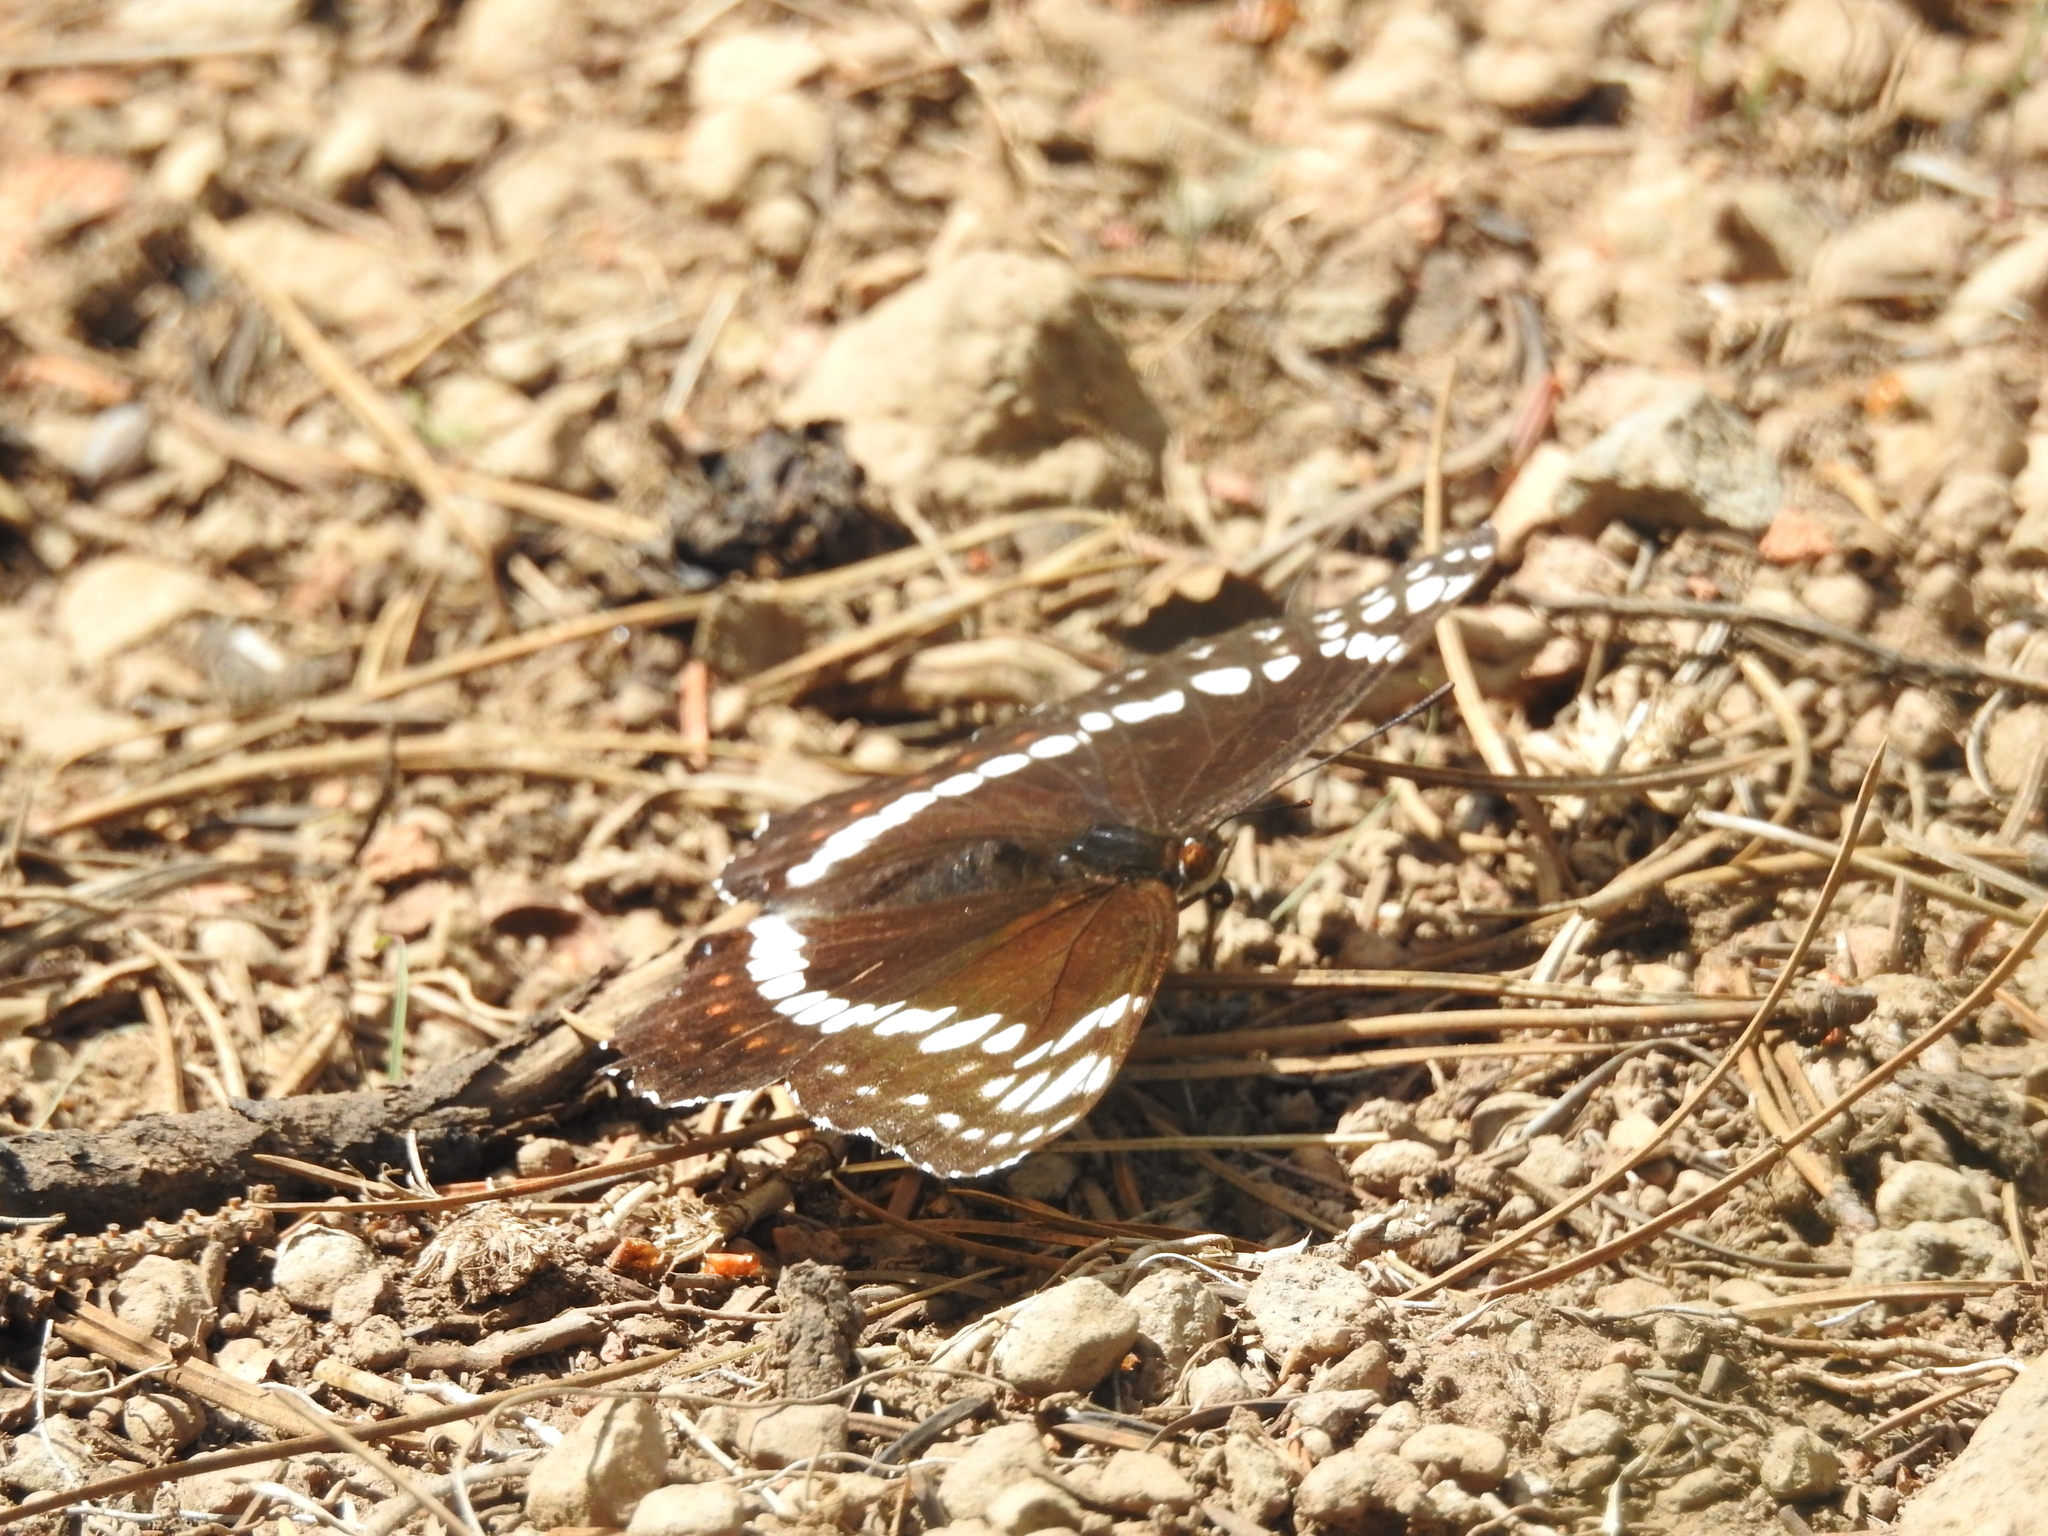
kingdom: Animalia
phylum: Arthropoda
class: Insecta
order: Lepidoptera
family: Nymphalidae
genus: Limenitis
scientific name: Limenitis weidemeyerii
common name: Weidemeyer's admiral
